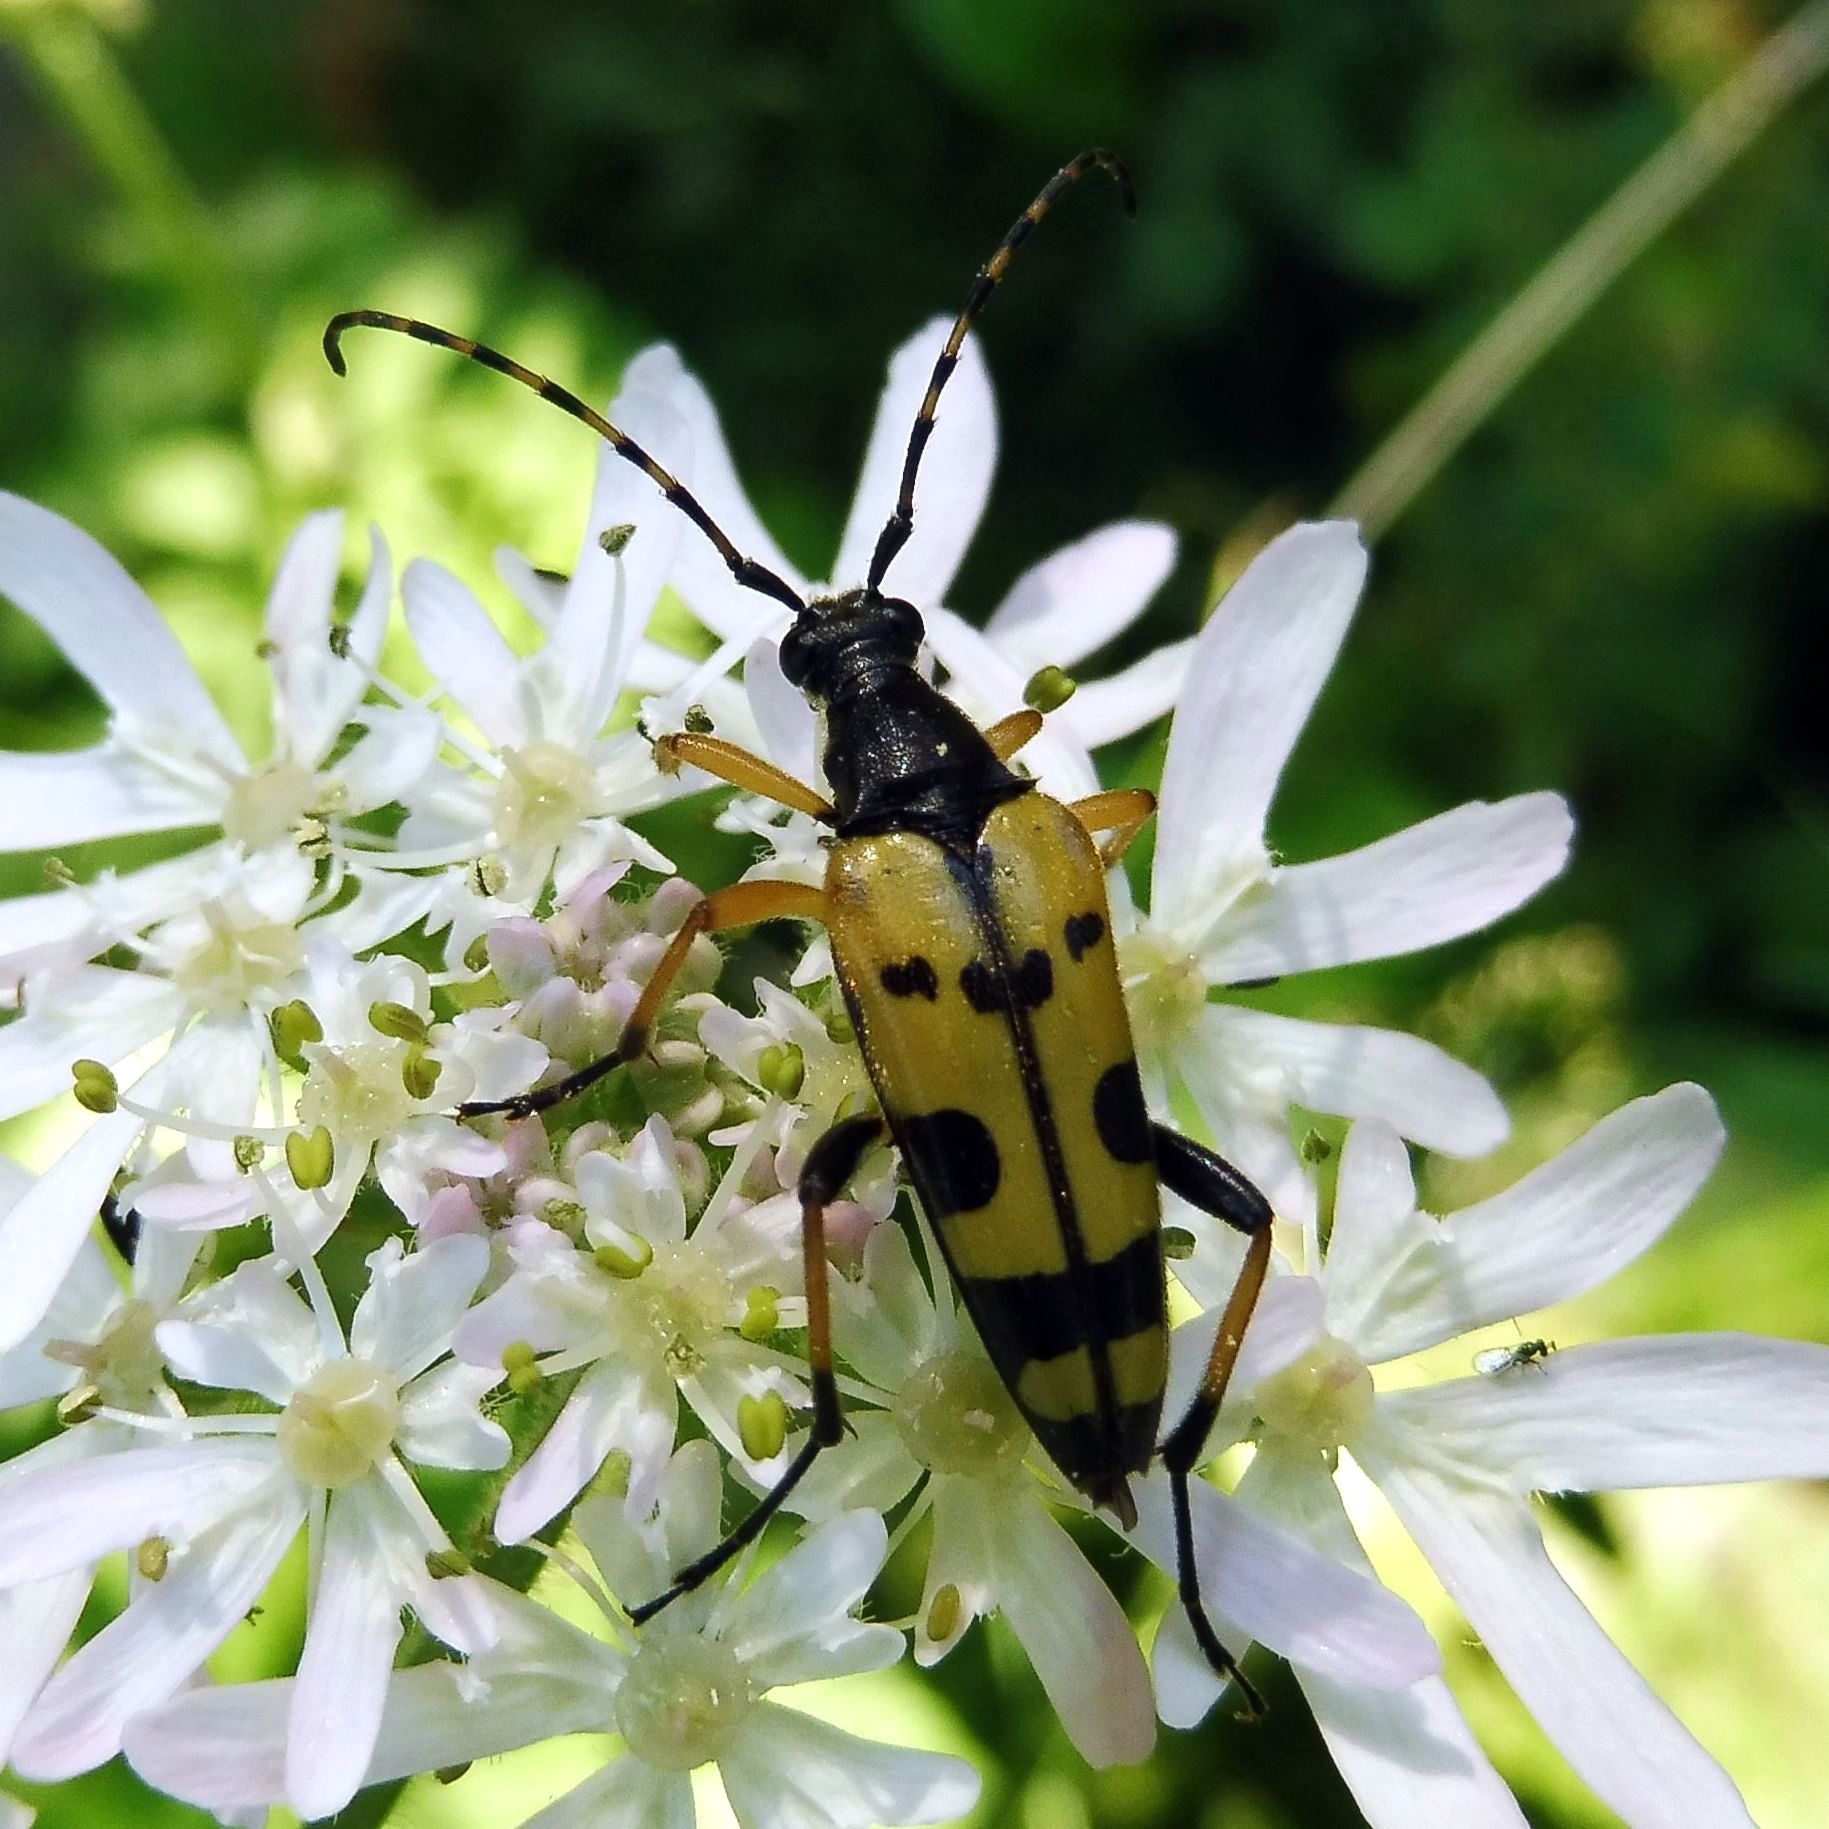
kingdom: Animalia
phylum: Arthropoda
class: Insecta
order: Coleoptera
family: Cerambycidae
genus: Rutpela
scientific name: Rutpela maculata
